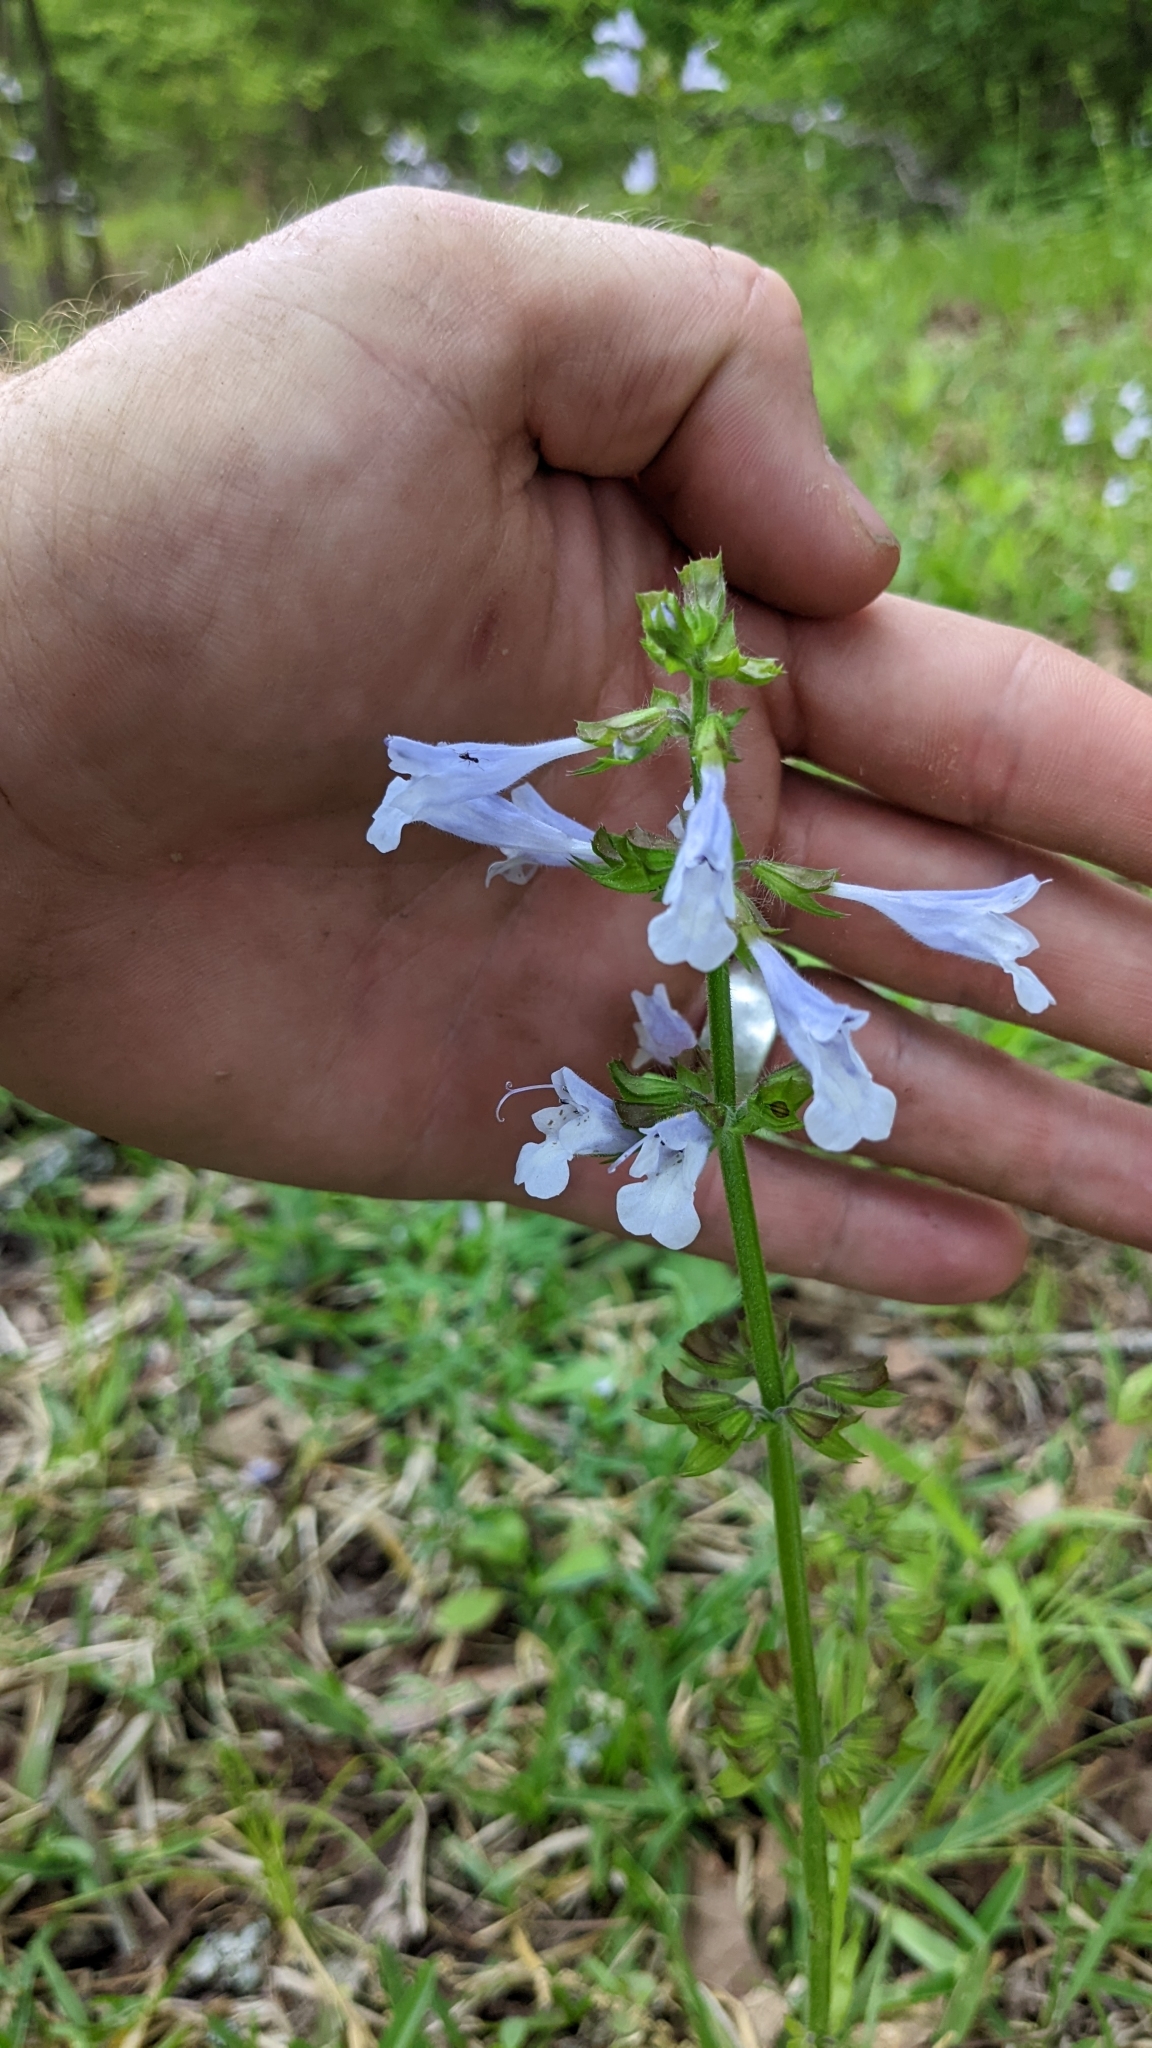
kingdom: Plantae
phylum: Tracheophyta
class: Magnoliopsida
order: Lamiales
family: Lamiaceae
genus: Salvia
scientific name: Salvia lyrata
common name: Cancerweed
